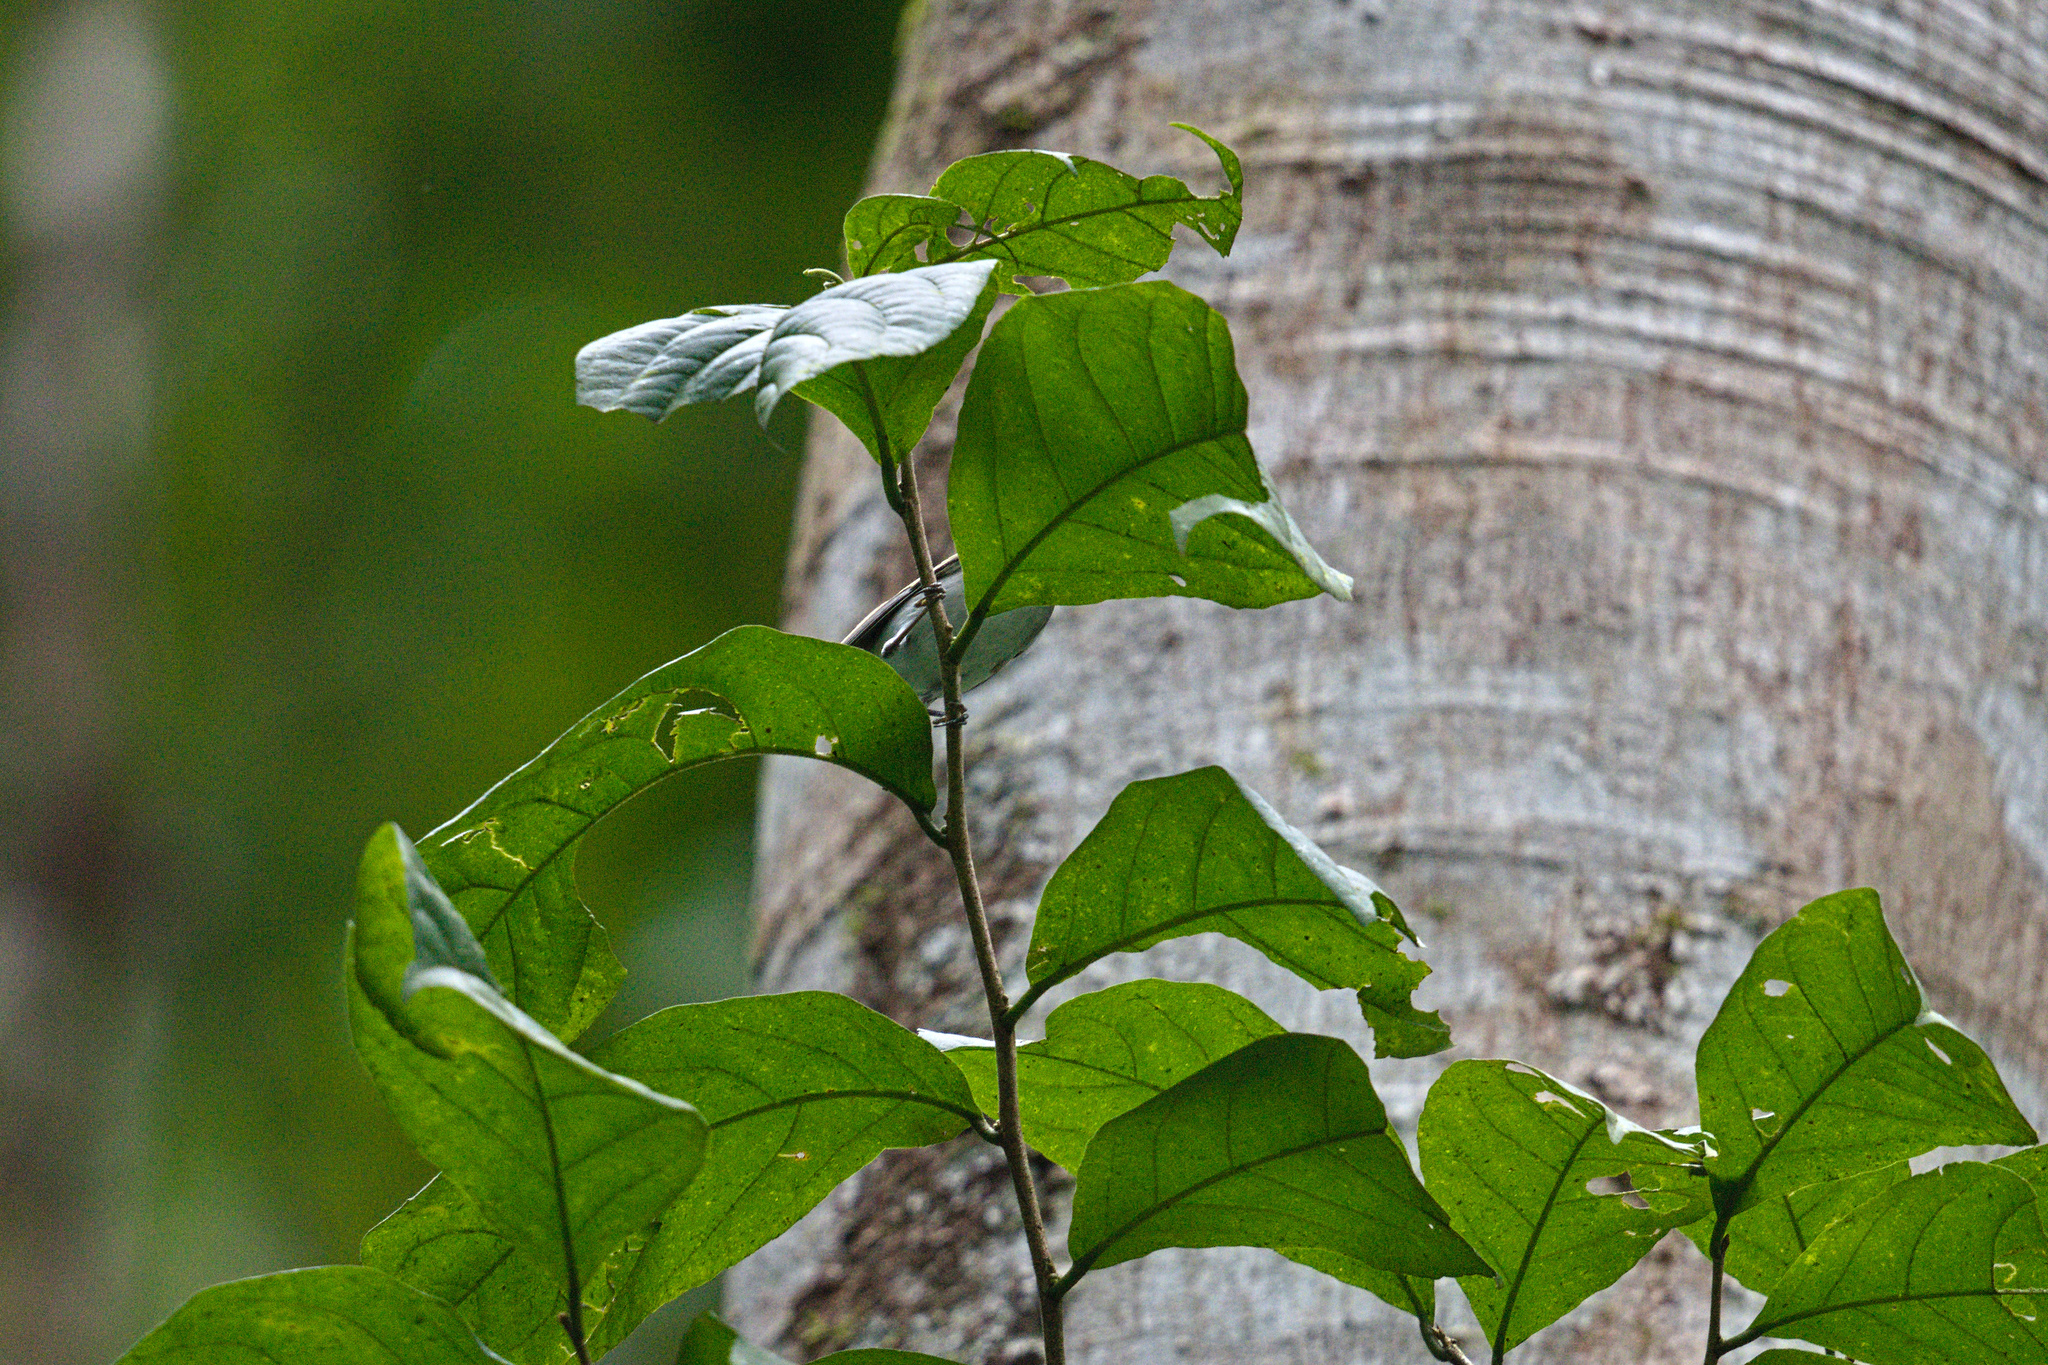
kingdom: Animalia
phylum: Chordata
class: Aves
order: Passeriformes
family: Parulidae
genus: Setophaga
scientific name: Setophaga pensylvanica
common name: Chestnut-sided warbler
